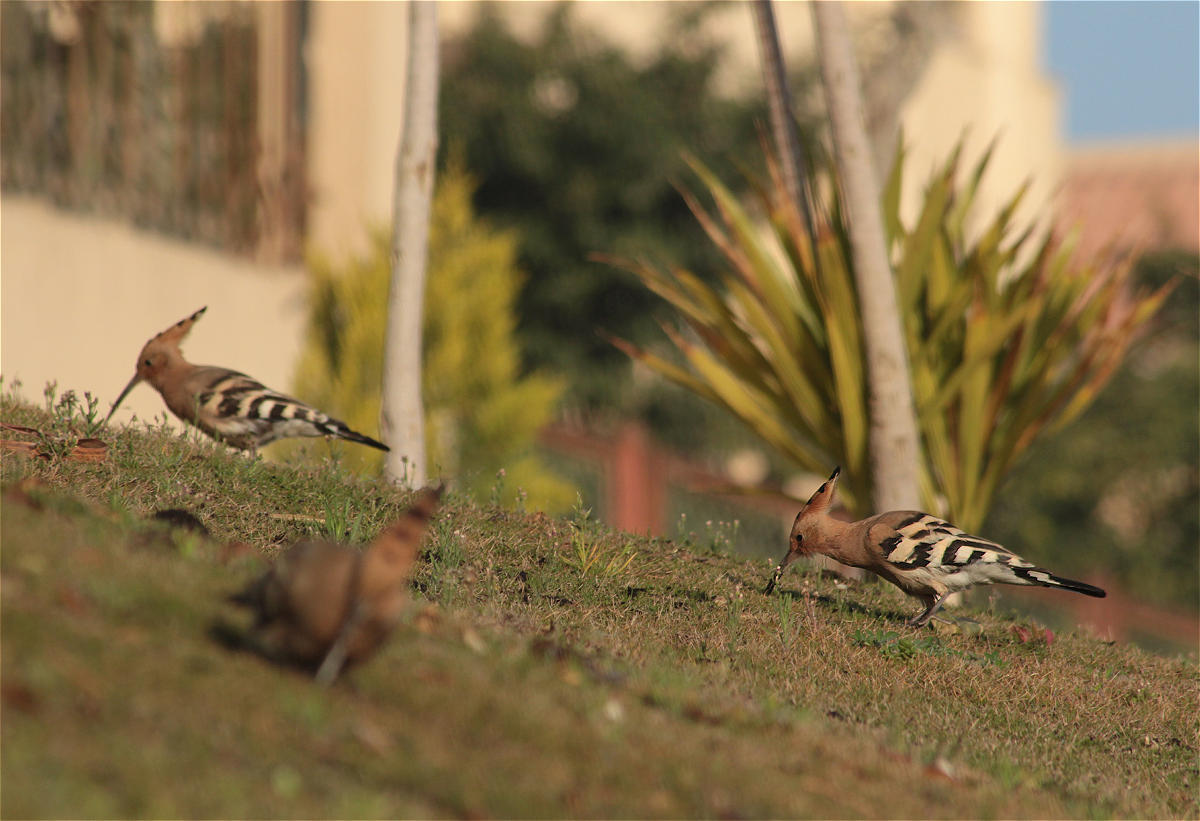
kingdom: Animalia
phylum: Chordata
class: Aves
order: Bucerotiformes
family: Upupidae
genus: Upupa
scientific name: Upupa epops
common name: Eurasian hoopoe
